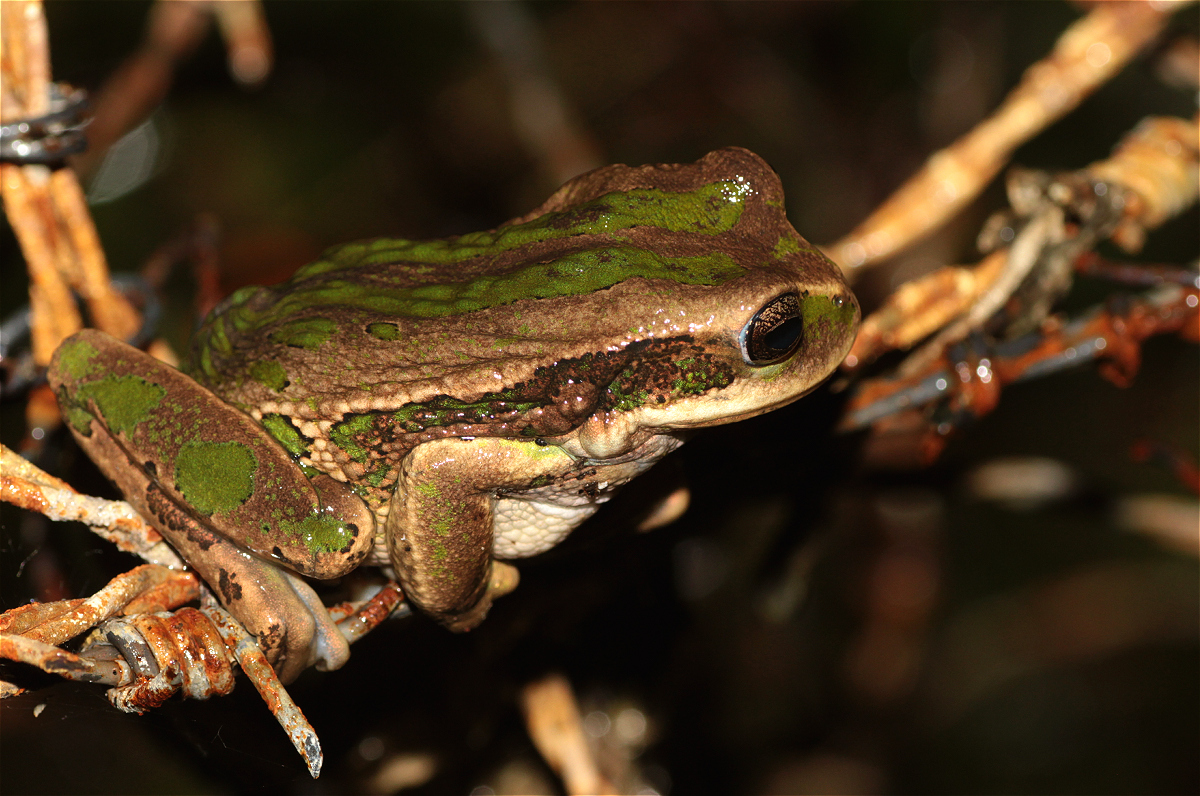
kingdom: Animalia
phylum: Chordata
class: Amphibia
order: Anura
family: Hemiphractidae
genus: Gastrotheca
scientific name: Gastrotheca cuencana
